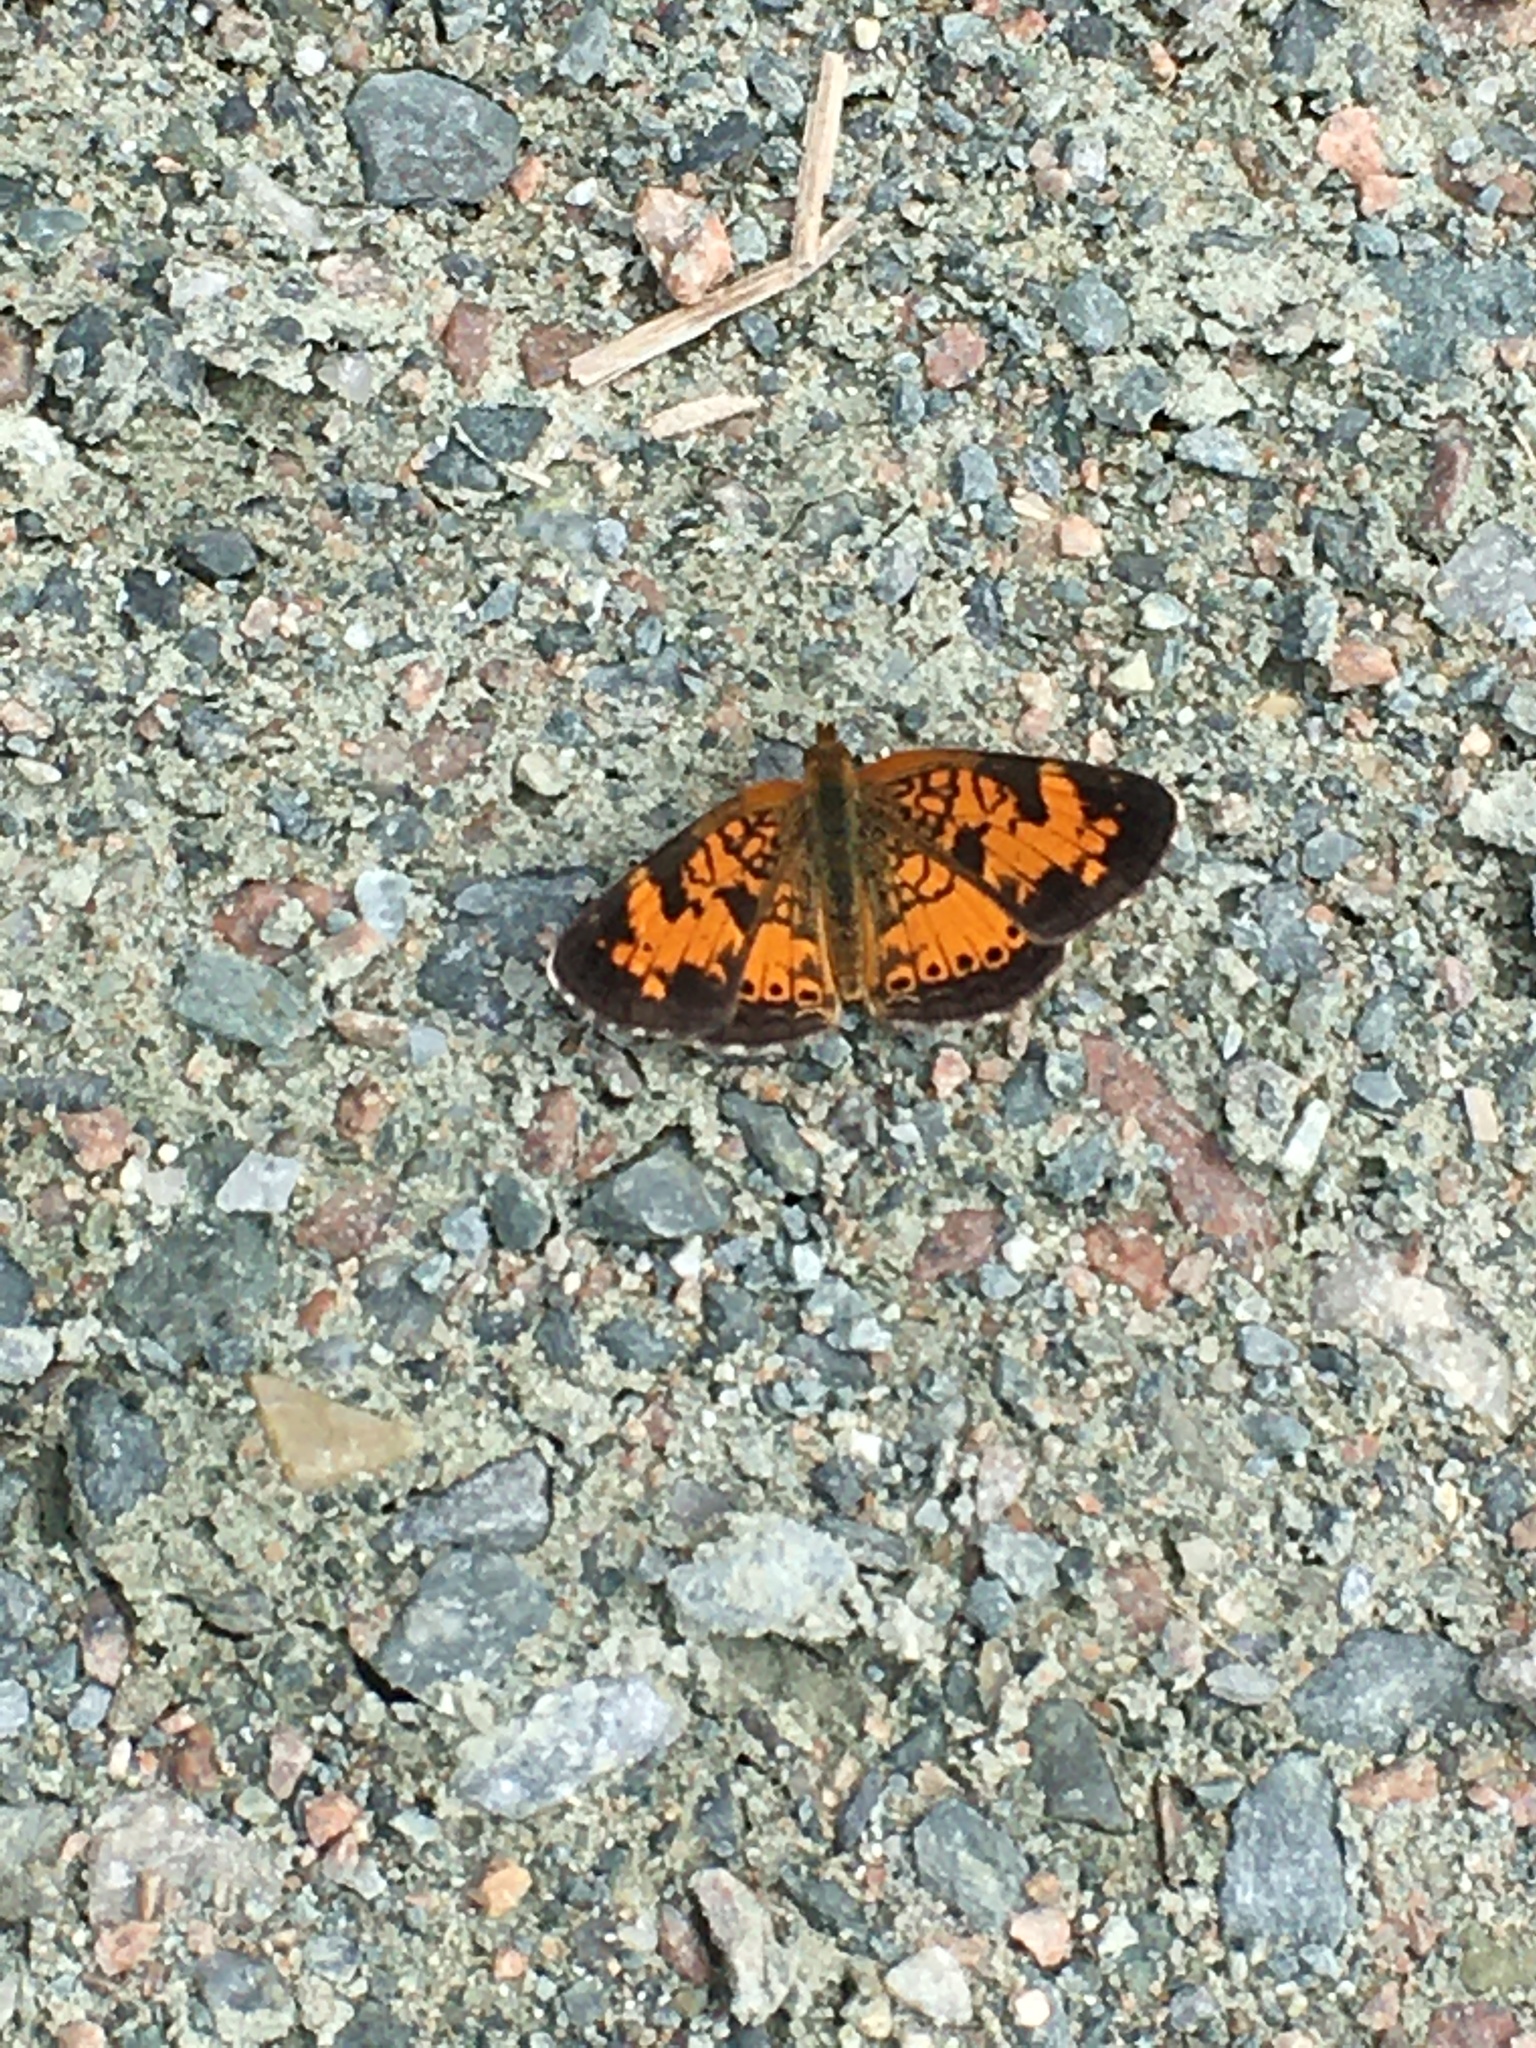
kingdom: Animalia
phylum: Arthropoda
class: Insecta
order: Lepidoptera
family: Nymphalidae
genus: Phyciodes
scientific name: Phyciodes tharos
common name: Pearl crescent
